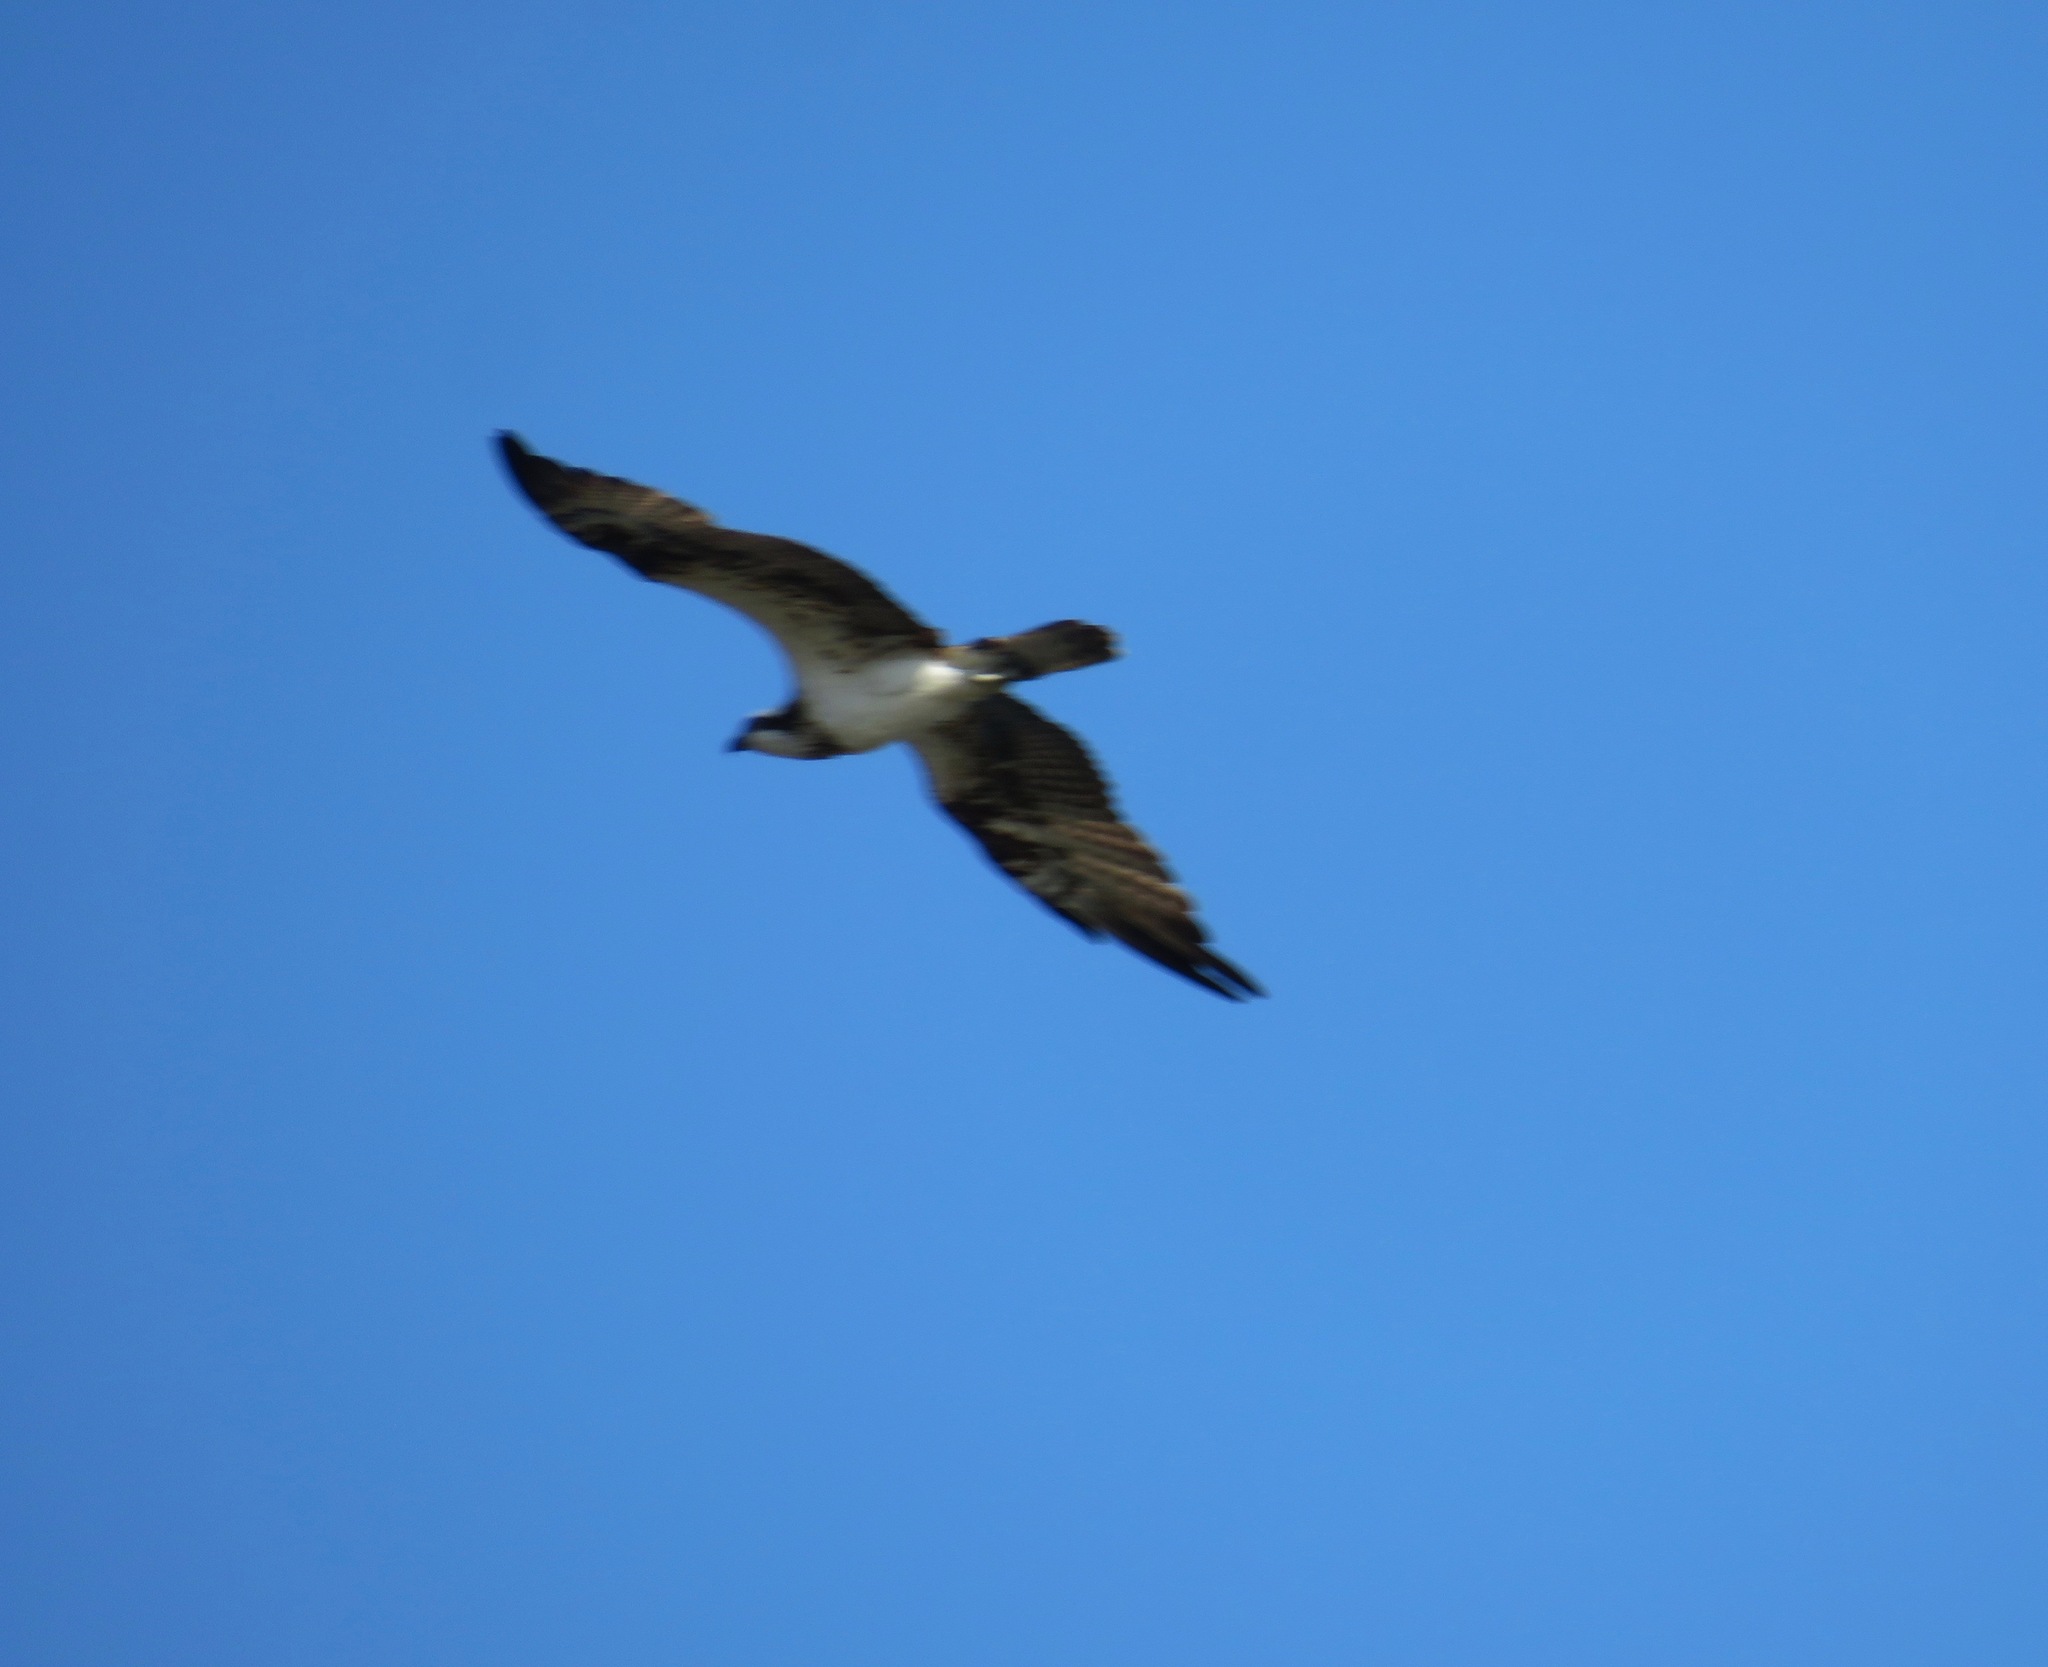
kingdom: Animalia
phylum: Chordata
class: Aves
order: Accipitriformes
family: Pandionidae
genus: Pandion
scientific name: Pandion haliaetus
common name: Osprey
